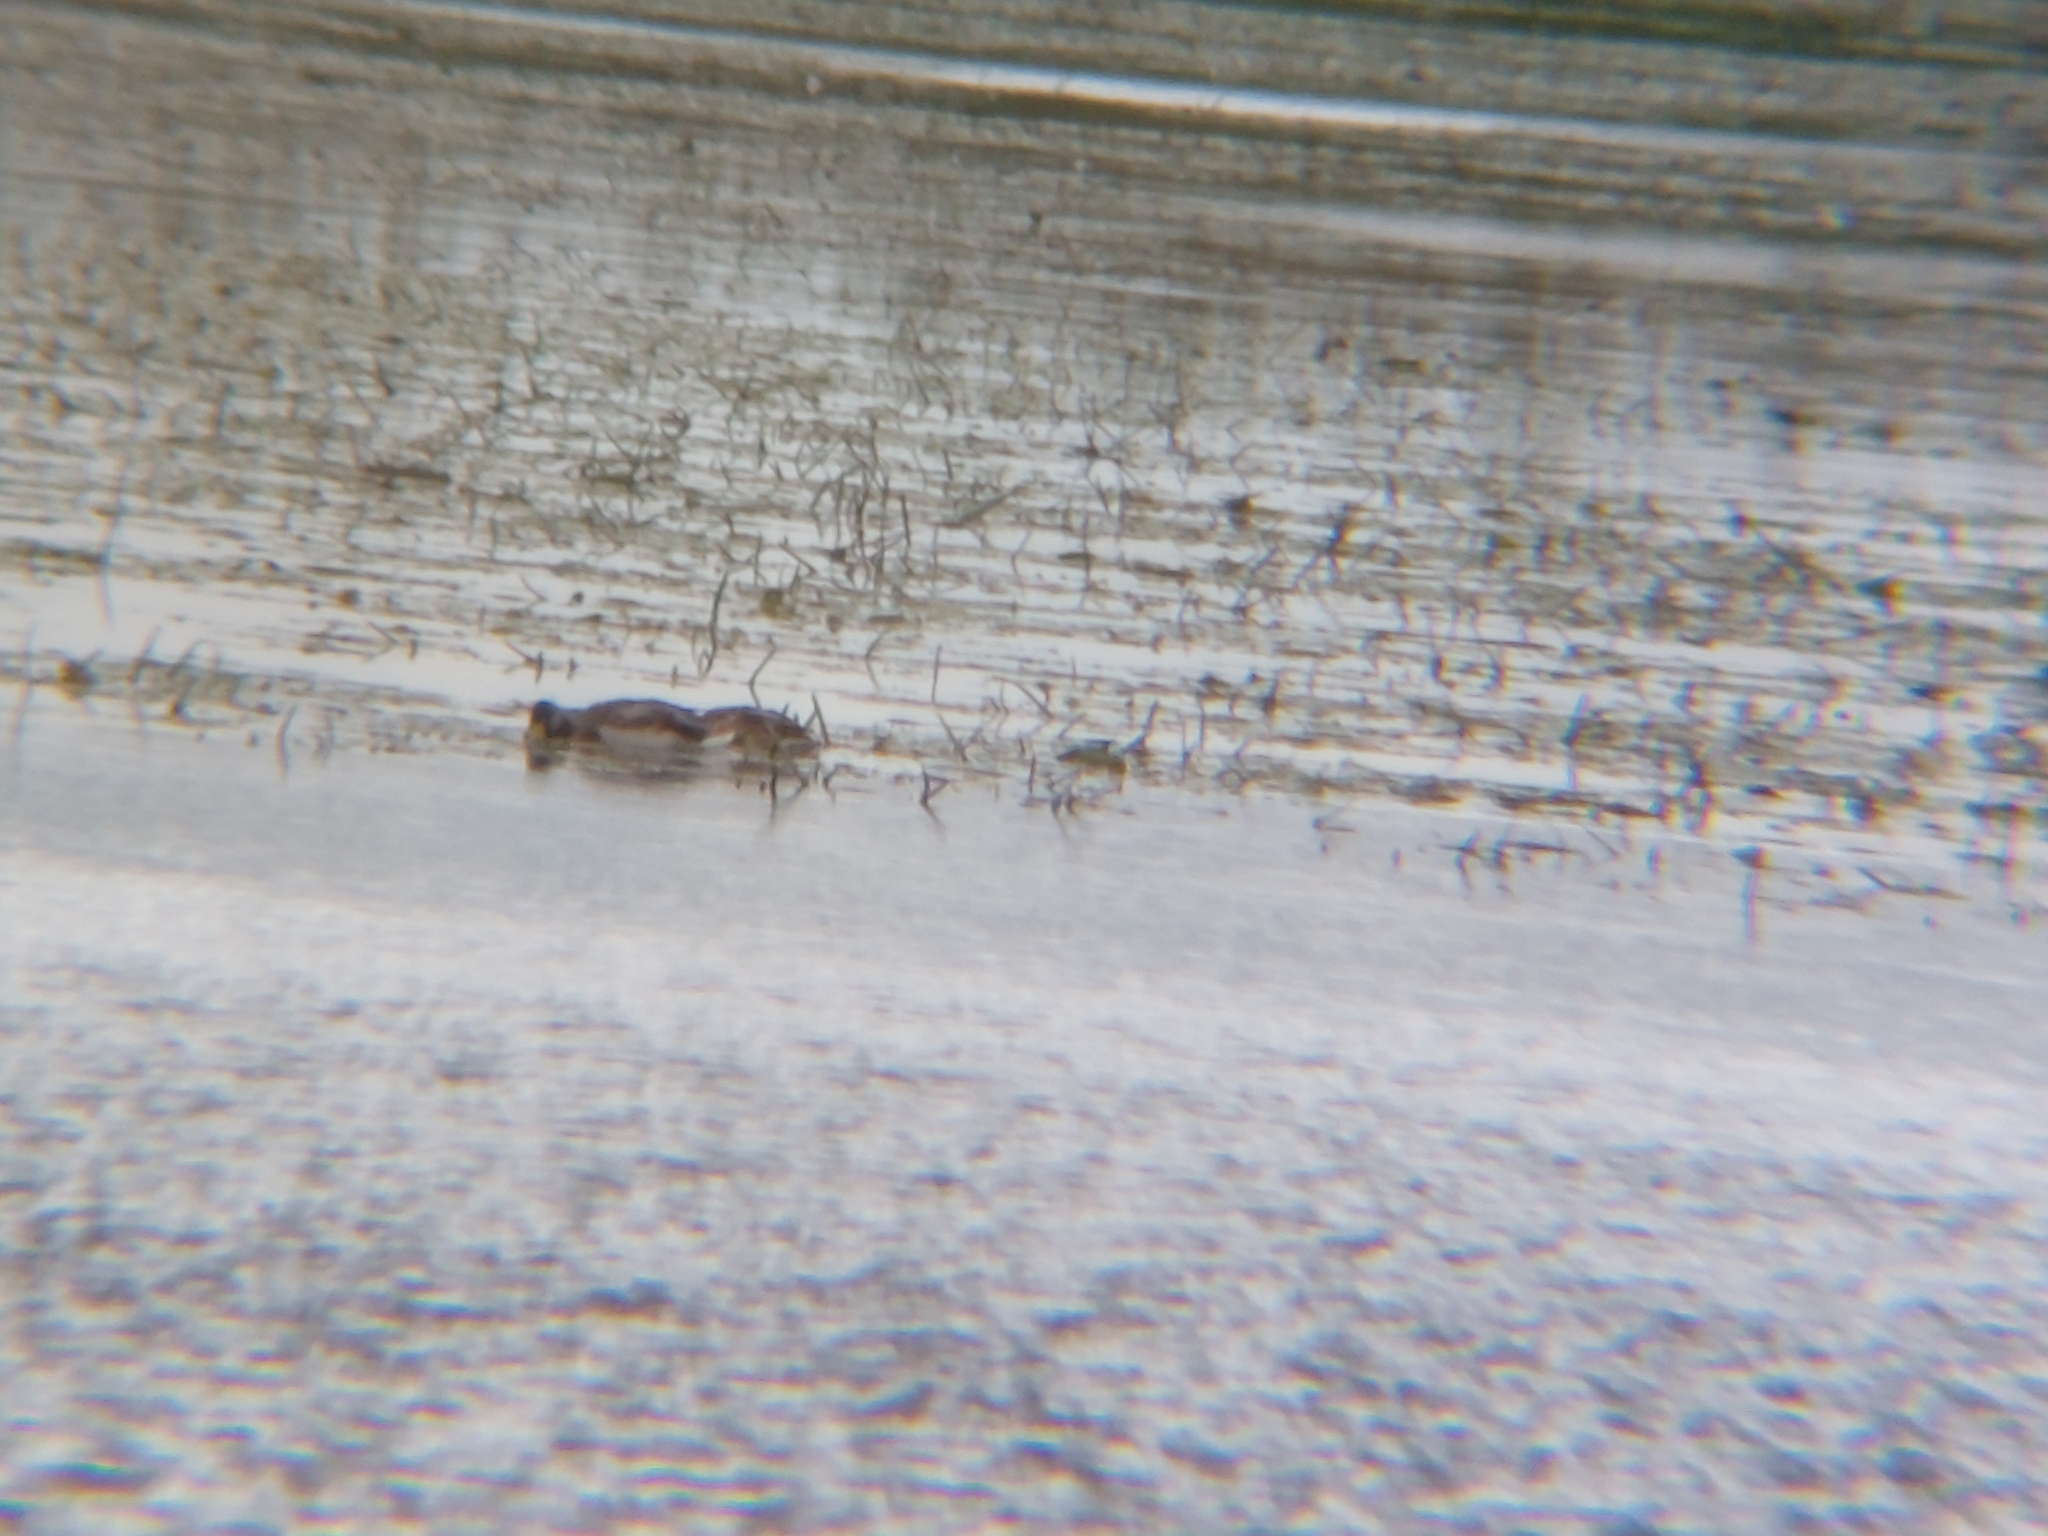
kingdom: Animalia
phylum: Chordata
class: Aves
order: Anseriformes
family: Anatidae
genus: Anas
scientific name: Anas platyrhynchos
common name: Mallard
